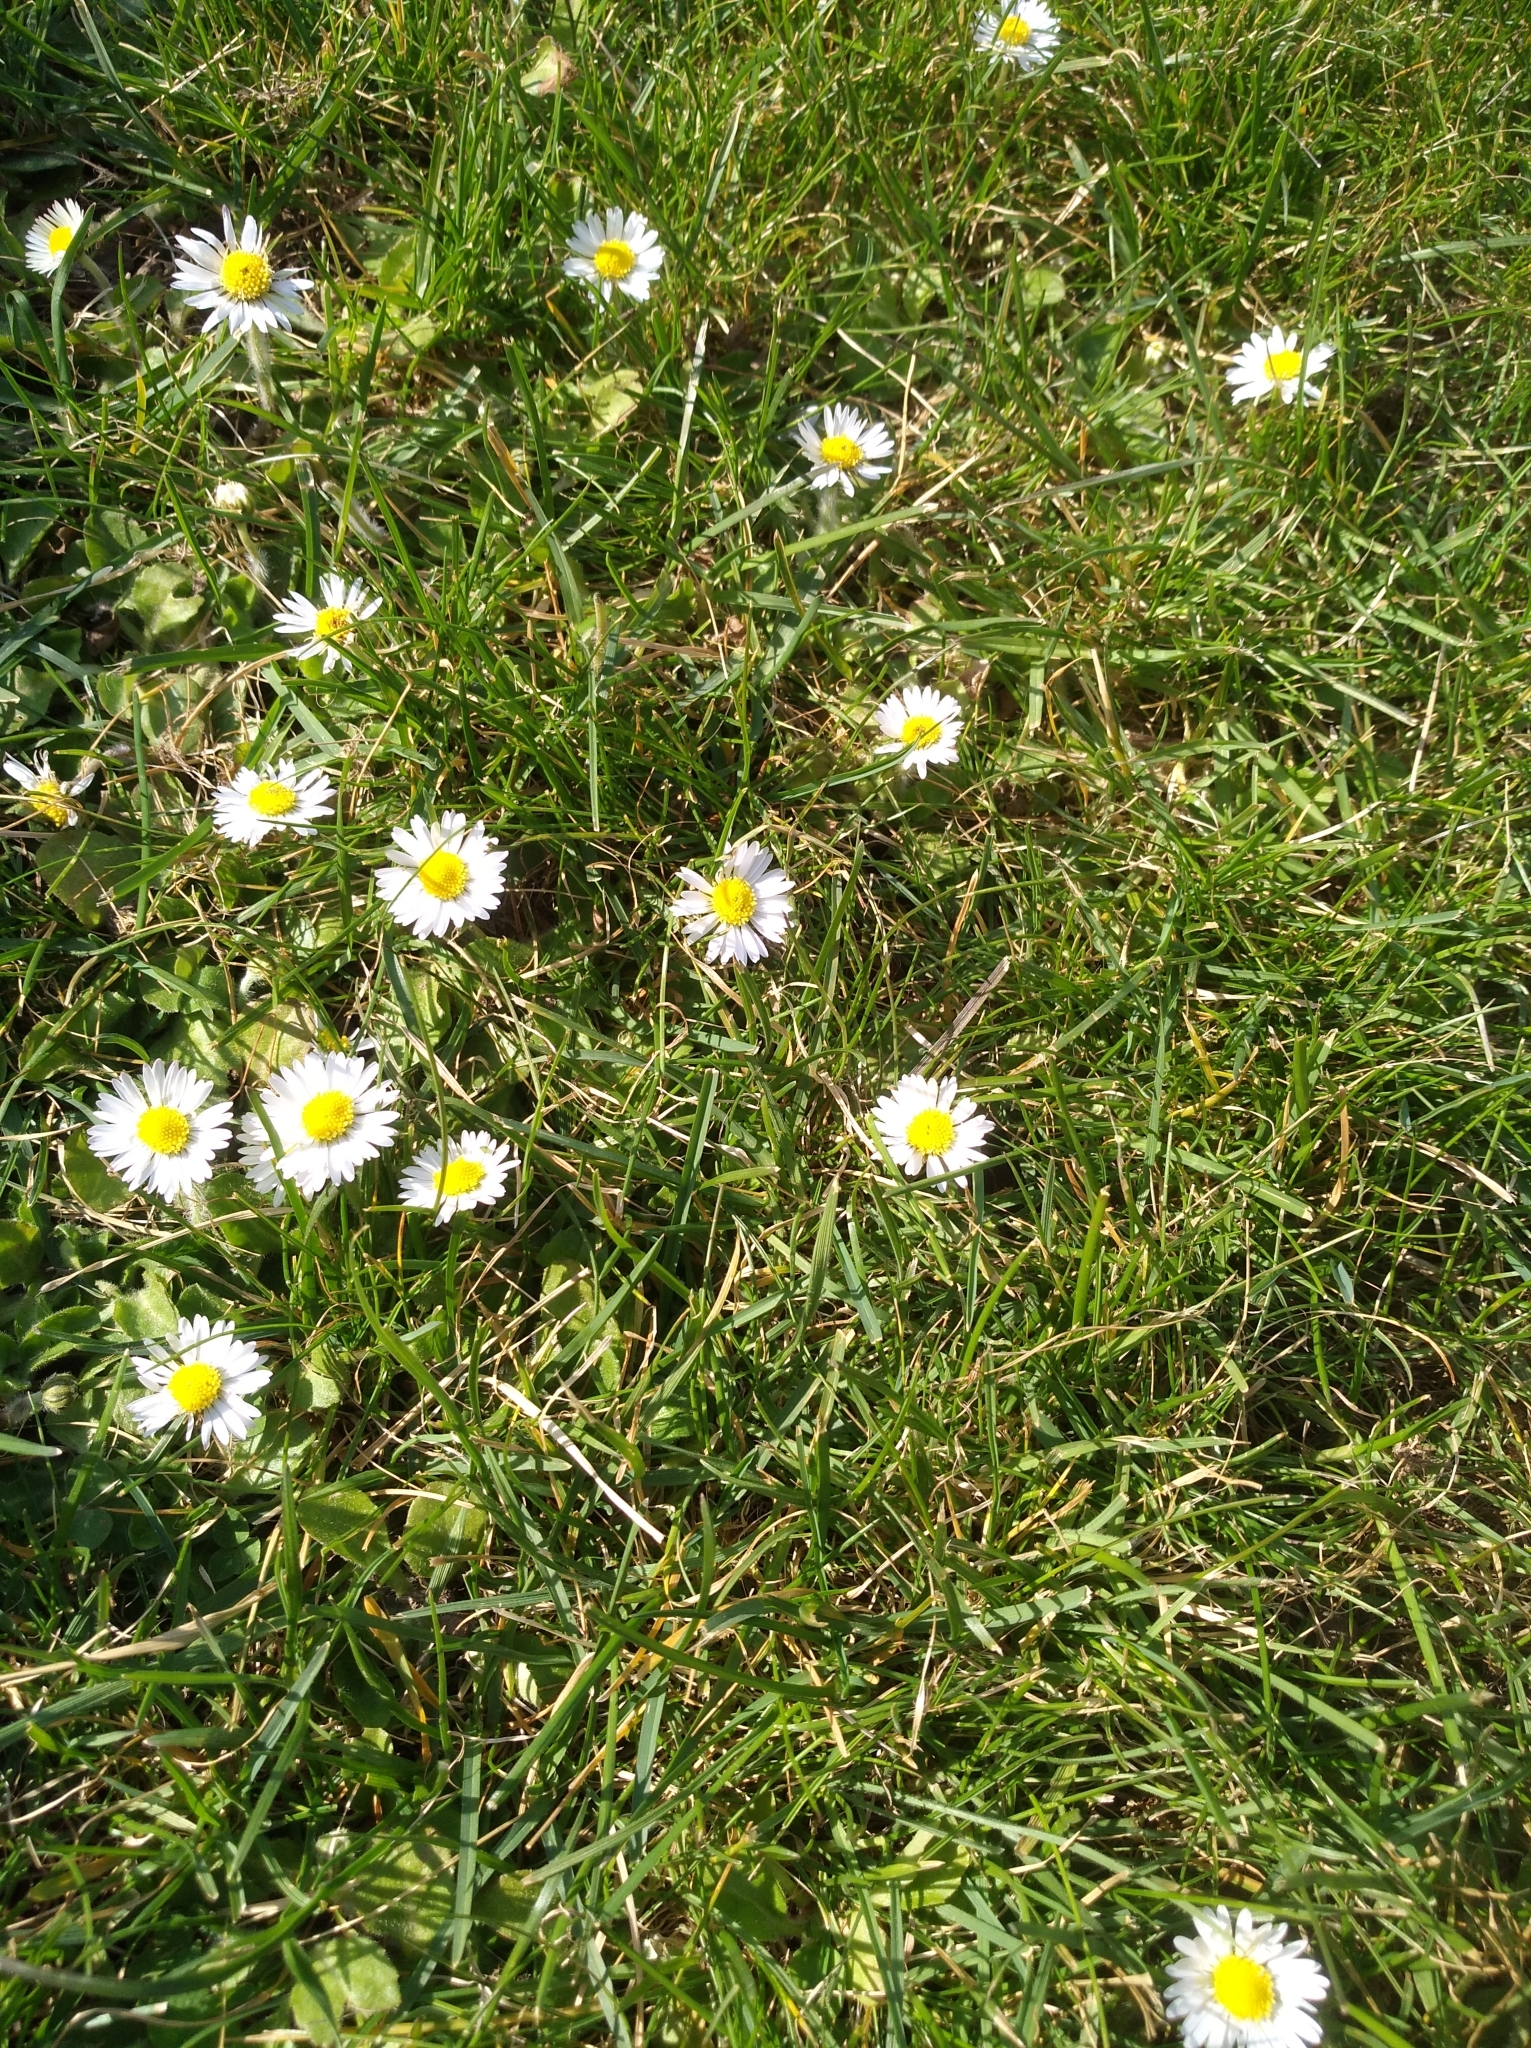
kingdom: Plantae
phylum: Tracheophyta
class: Magnoliopsida
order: Asterales
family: Asteraceae
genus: Bellis
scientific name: Bellis perennis
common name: Lawndaisy
